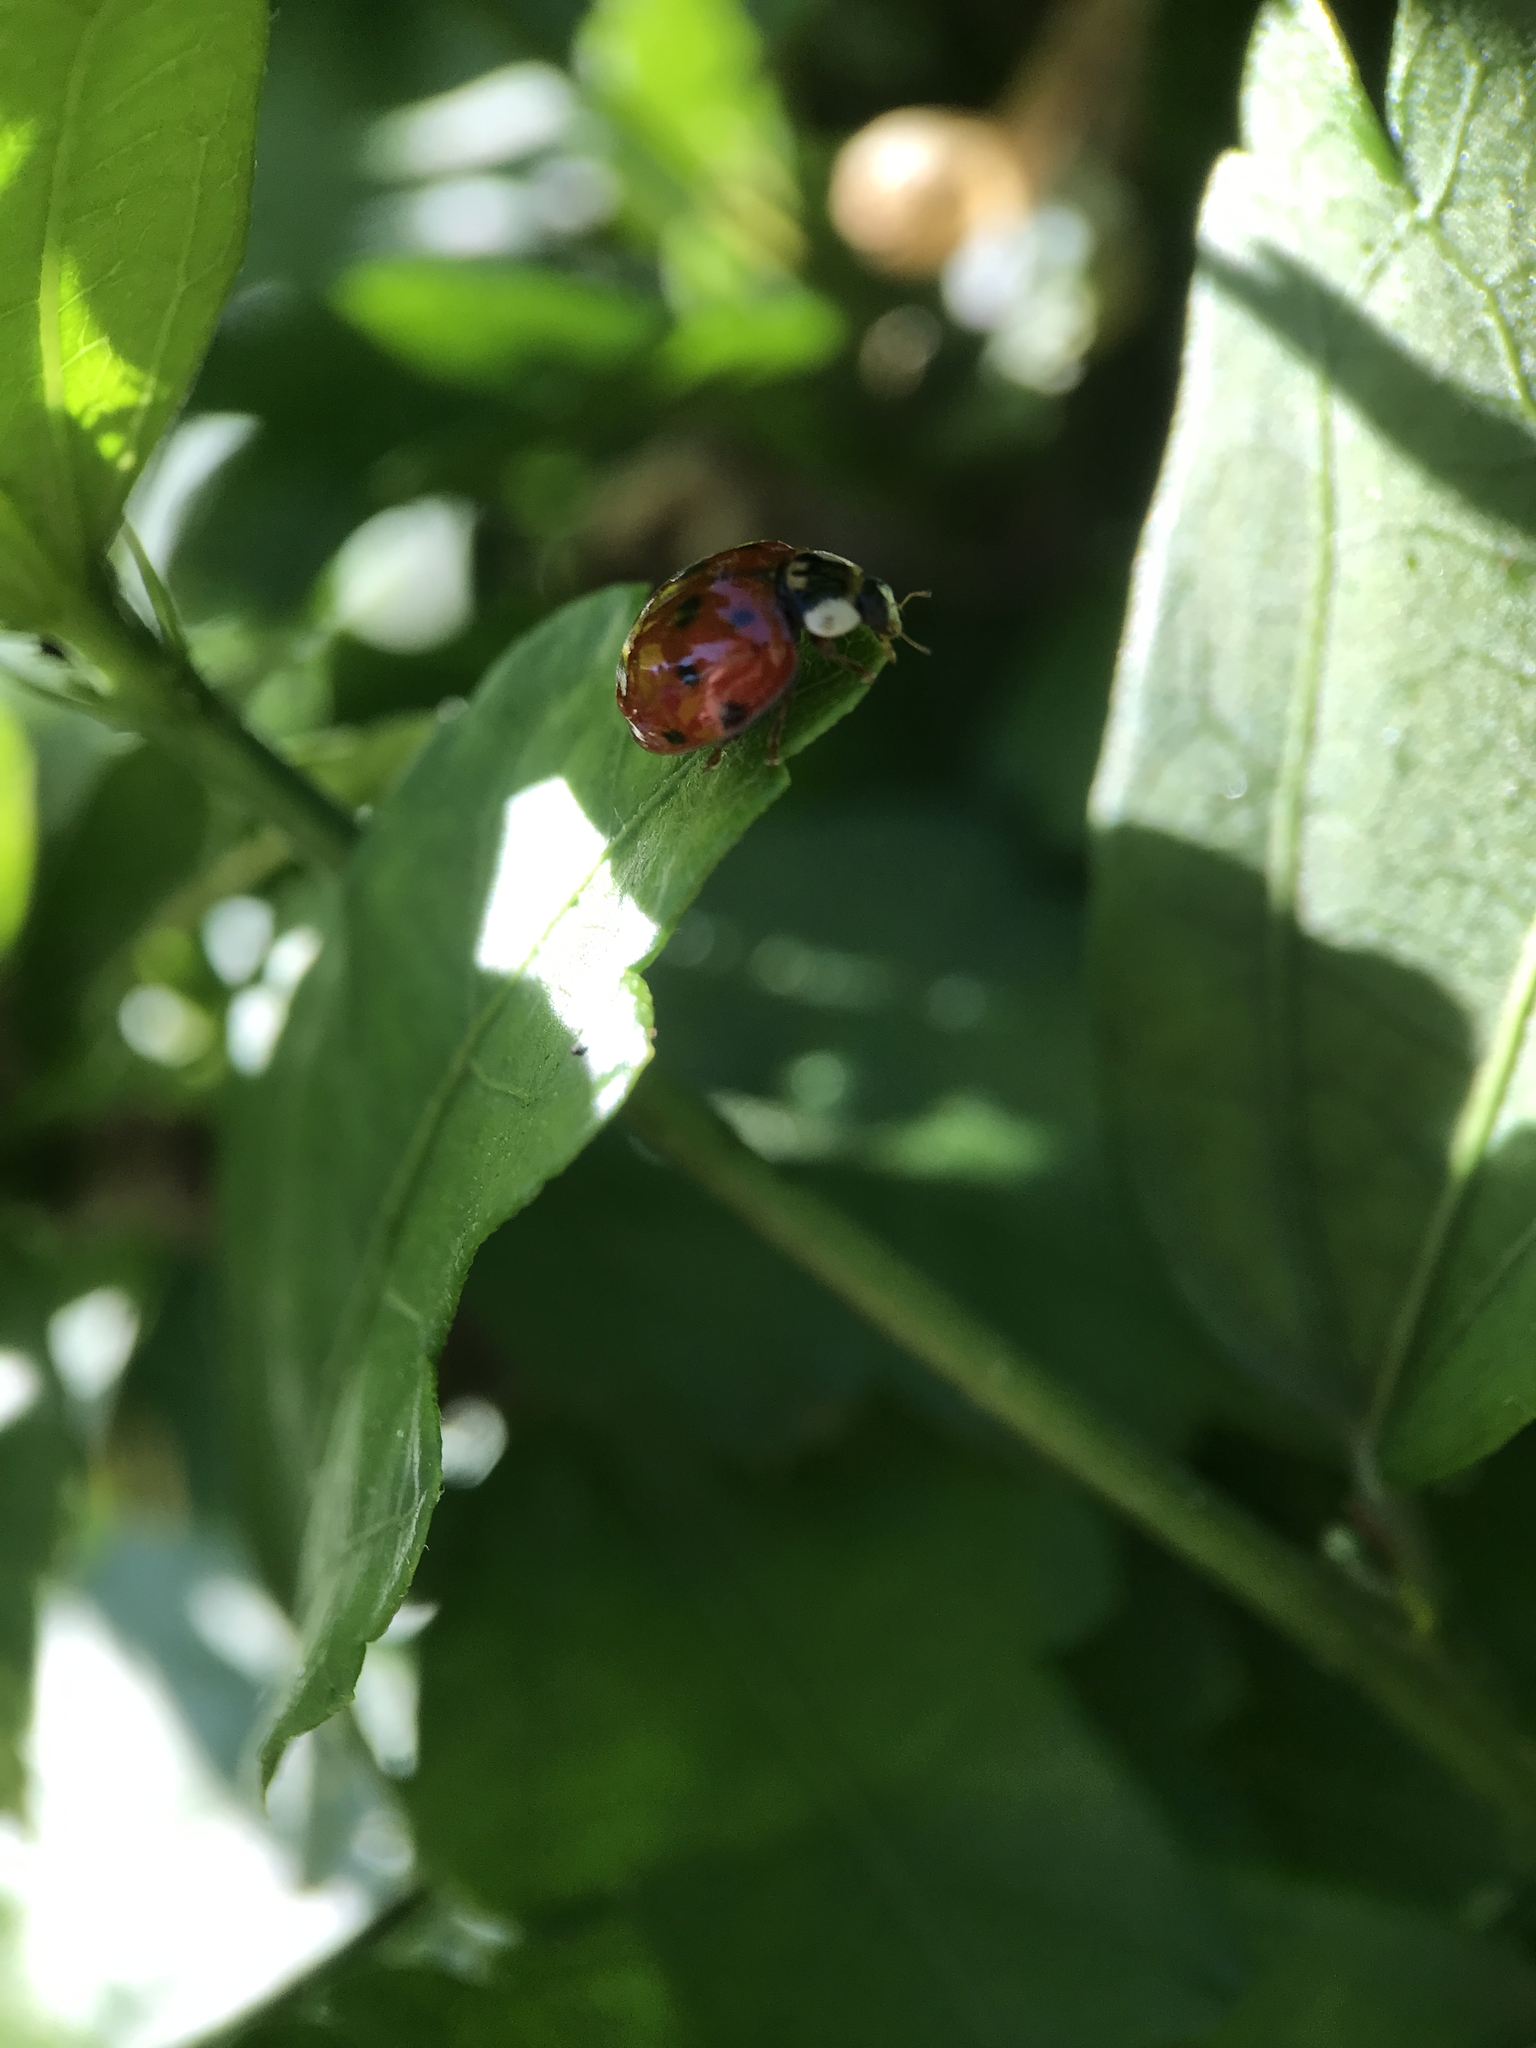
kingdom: Animalia
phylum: Arthropoda
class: Insecta
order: Coleoptera
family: Coccinellidae
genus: Harmonia
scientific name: Harmonia axyridis
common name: Harlequin ladybird
